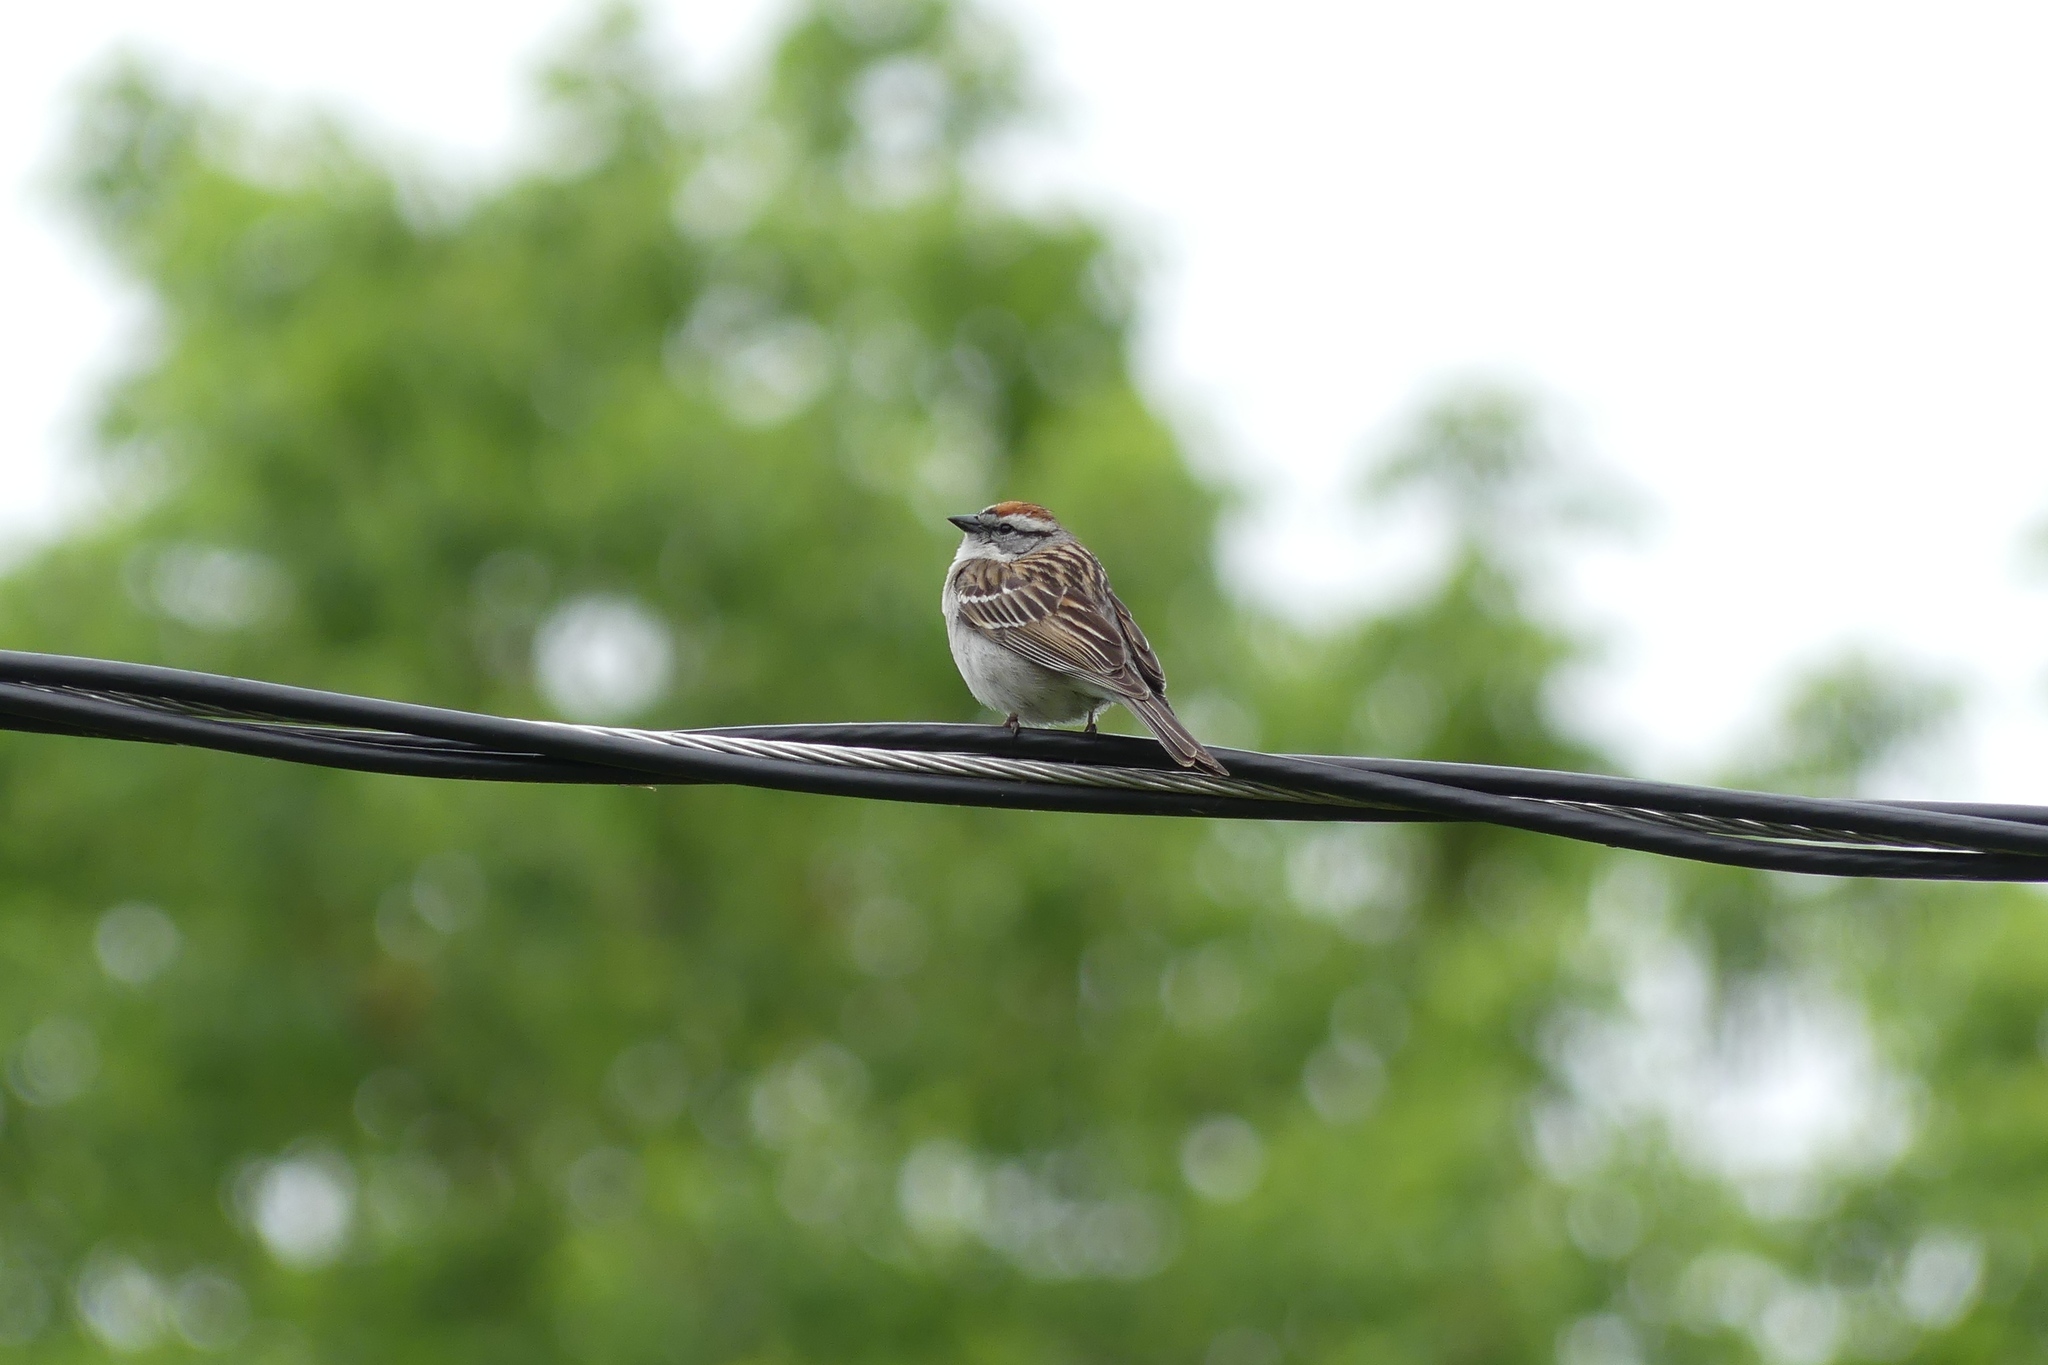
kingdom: Animalia
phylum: Chordata
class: Aves
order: Passeriformes
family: Passerellidae
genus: Spizella
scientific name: Spizella passerina
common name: Chipping sparrow
